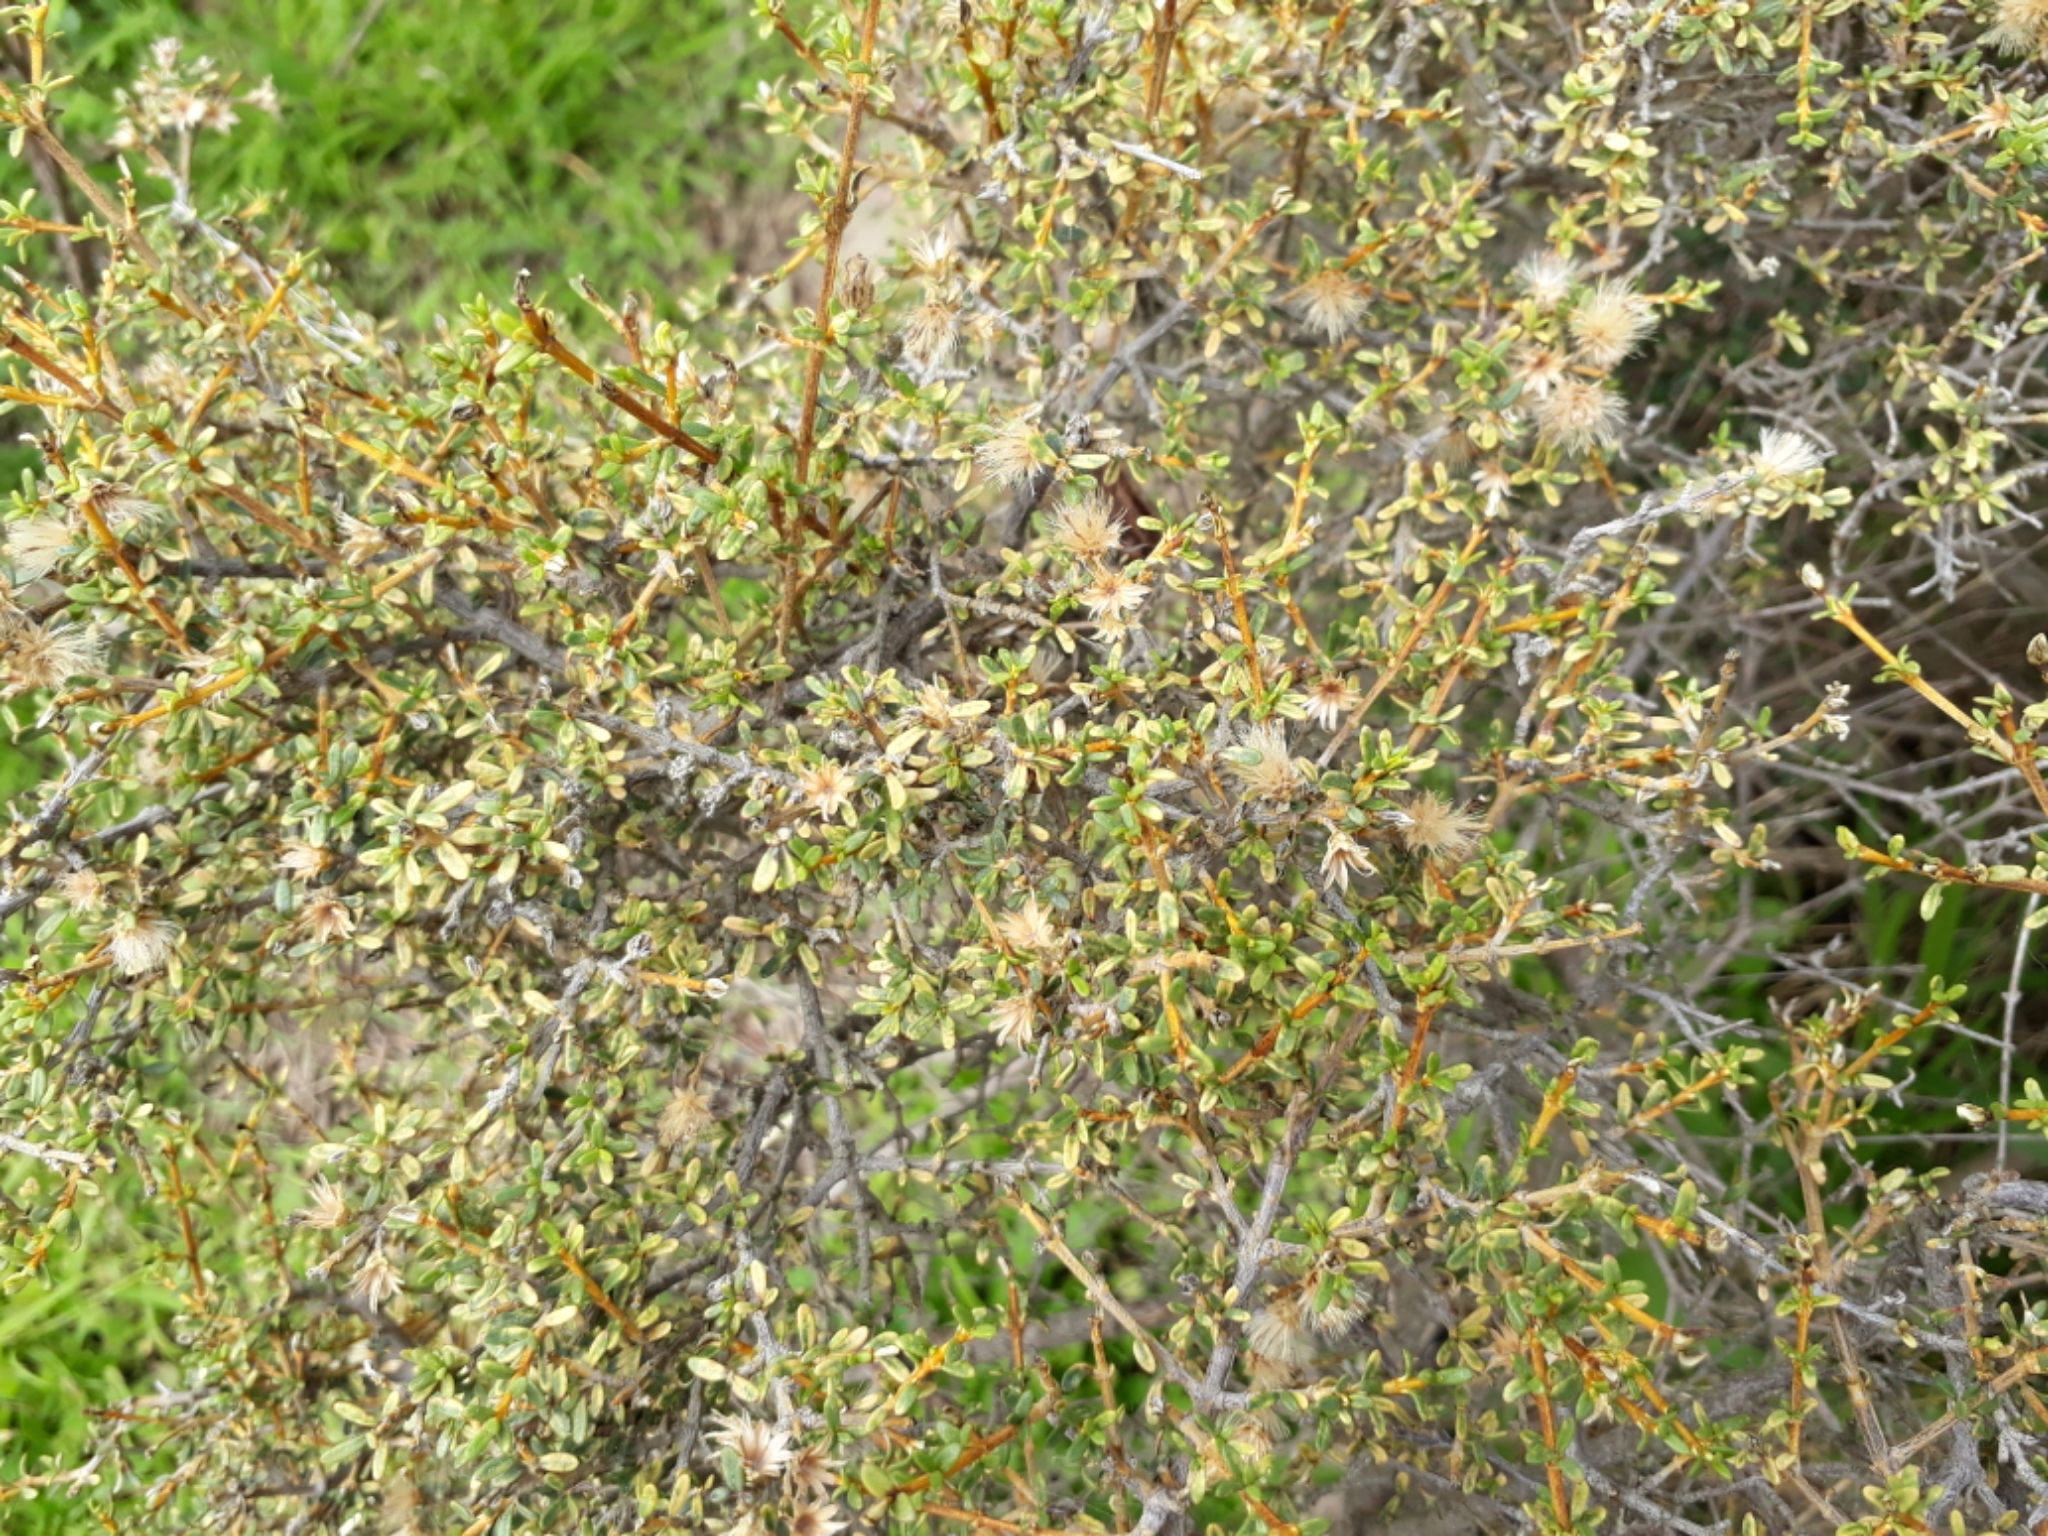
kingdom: Plantae
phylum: Tracheophyta
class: Magnoliopsida
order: Asterales
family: Asteraceae
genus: Olearia
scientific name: Olearia solandri
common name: Coastal daisybush
